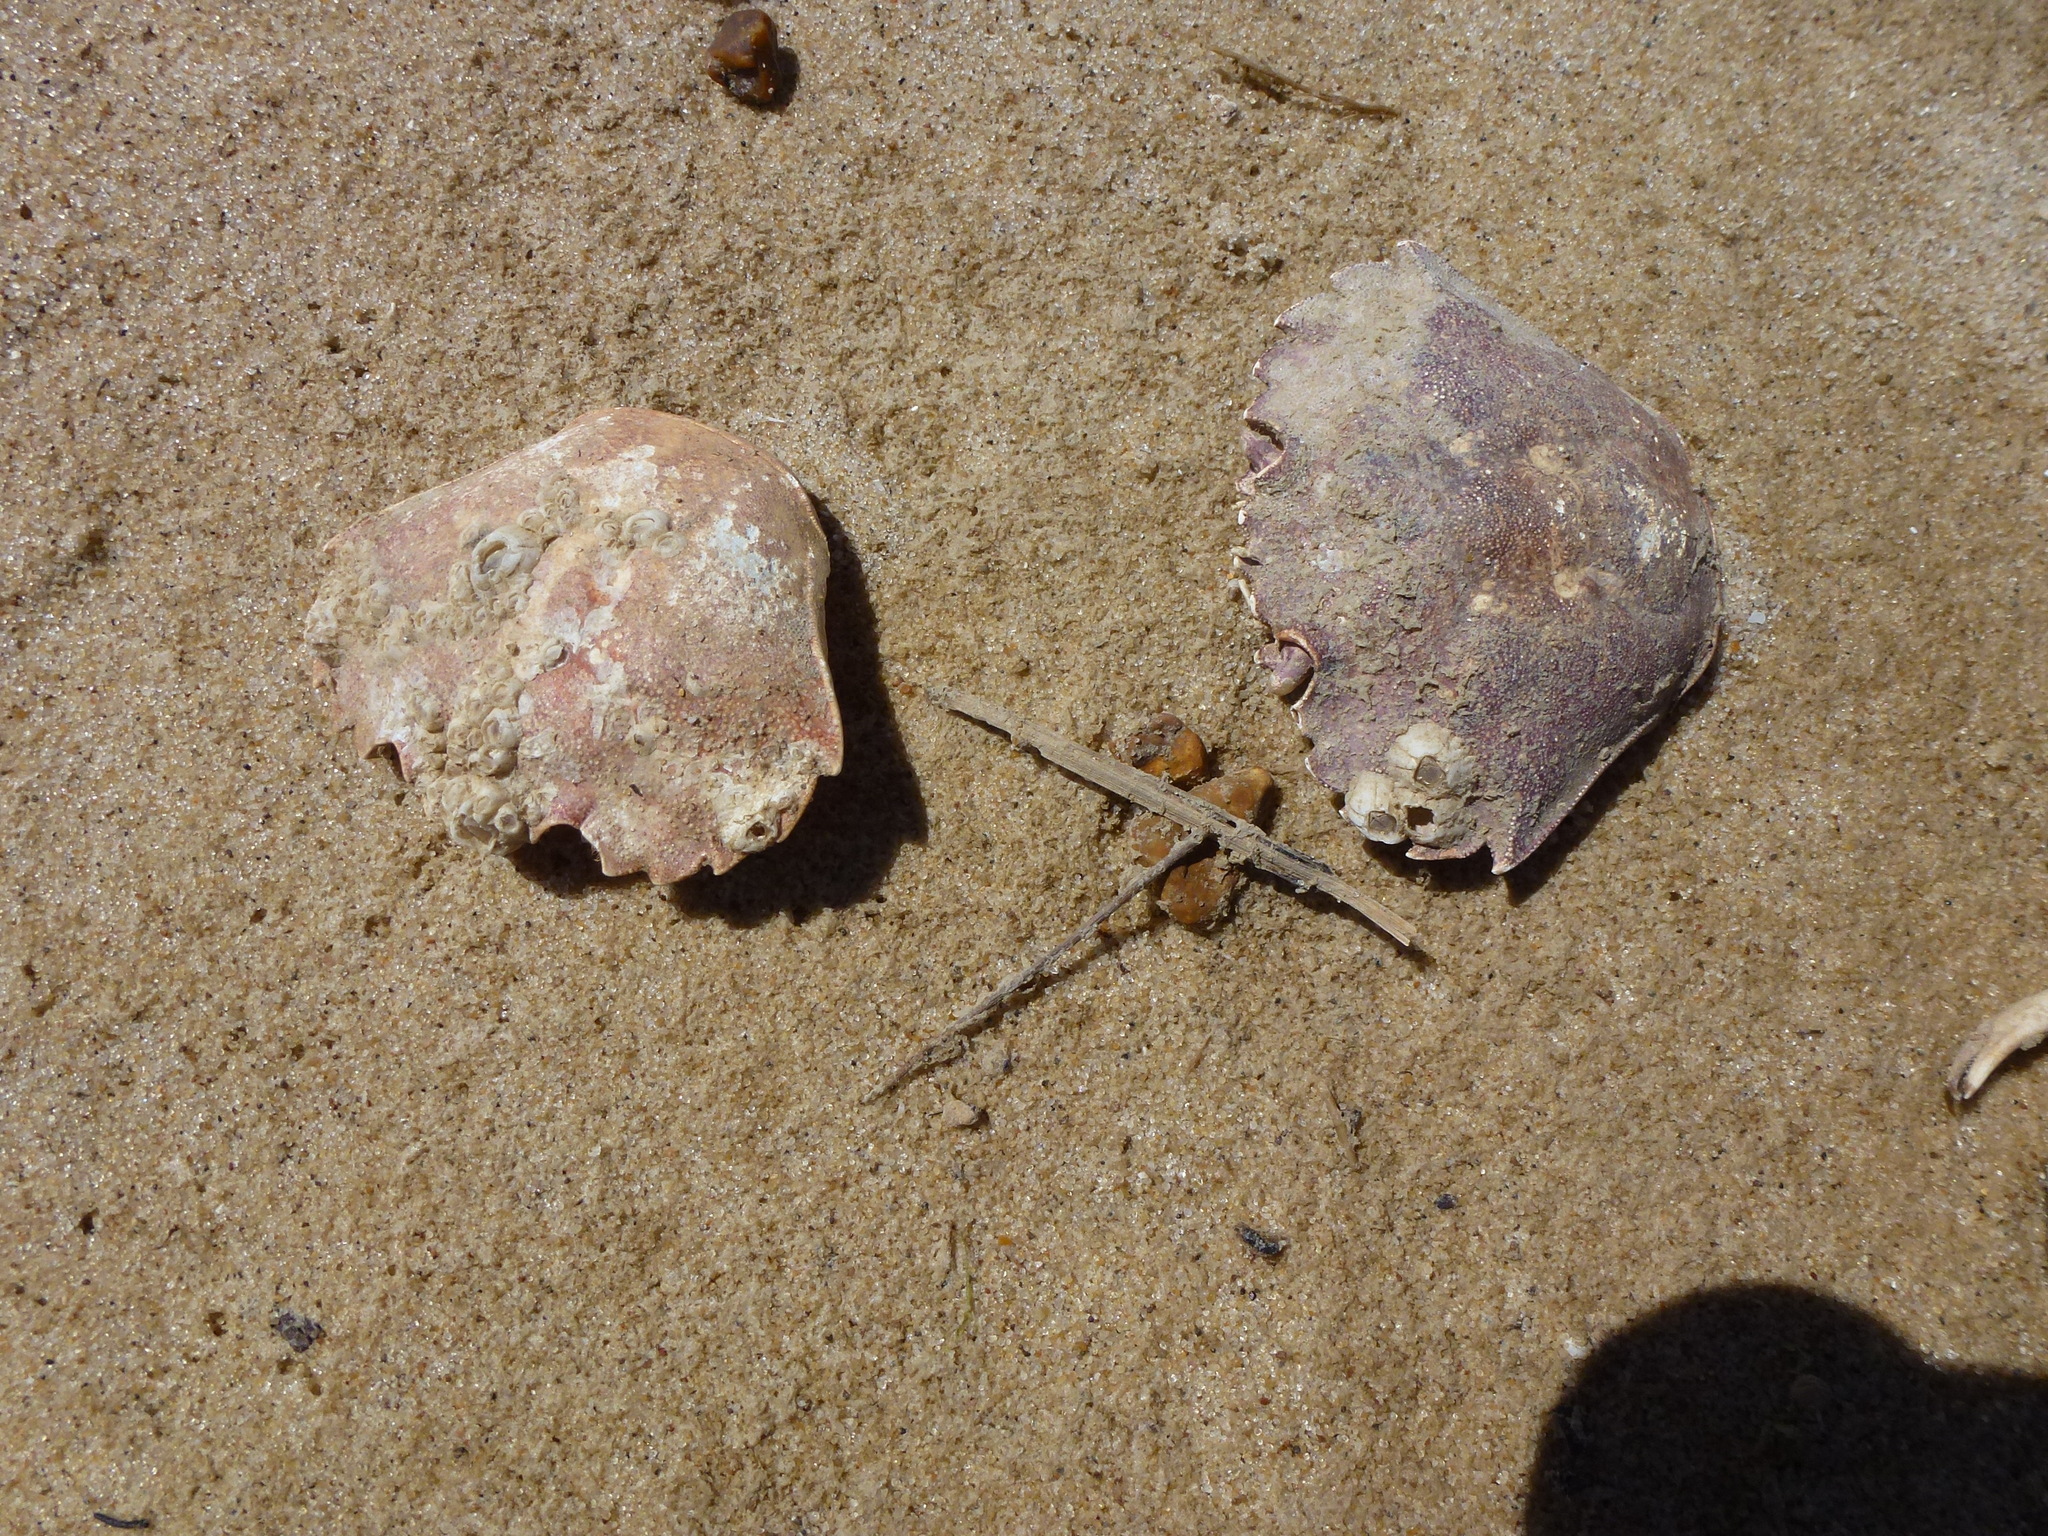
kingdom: Animalia
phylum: Arthropoda
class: Malacostraca
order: Decapoda
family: Carcinidae
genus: Carcinus
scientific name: Carcinus maenas
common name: European green crab
